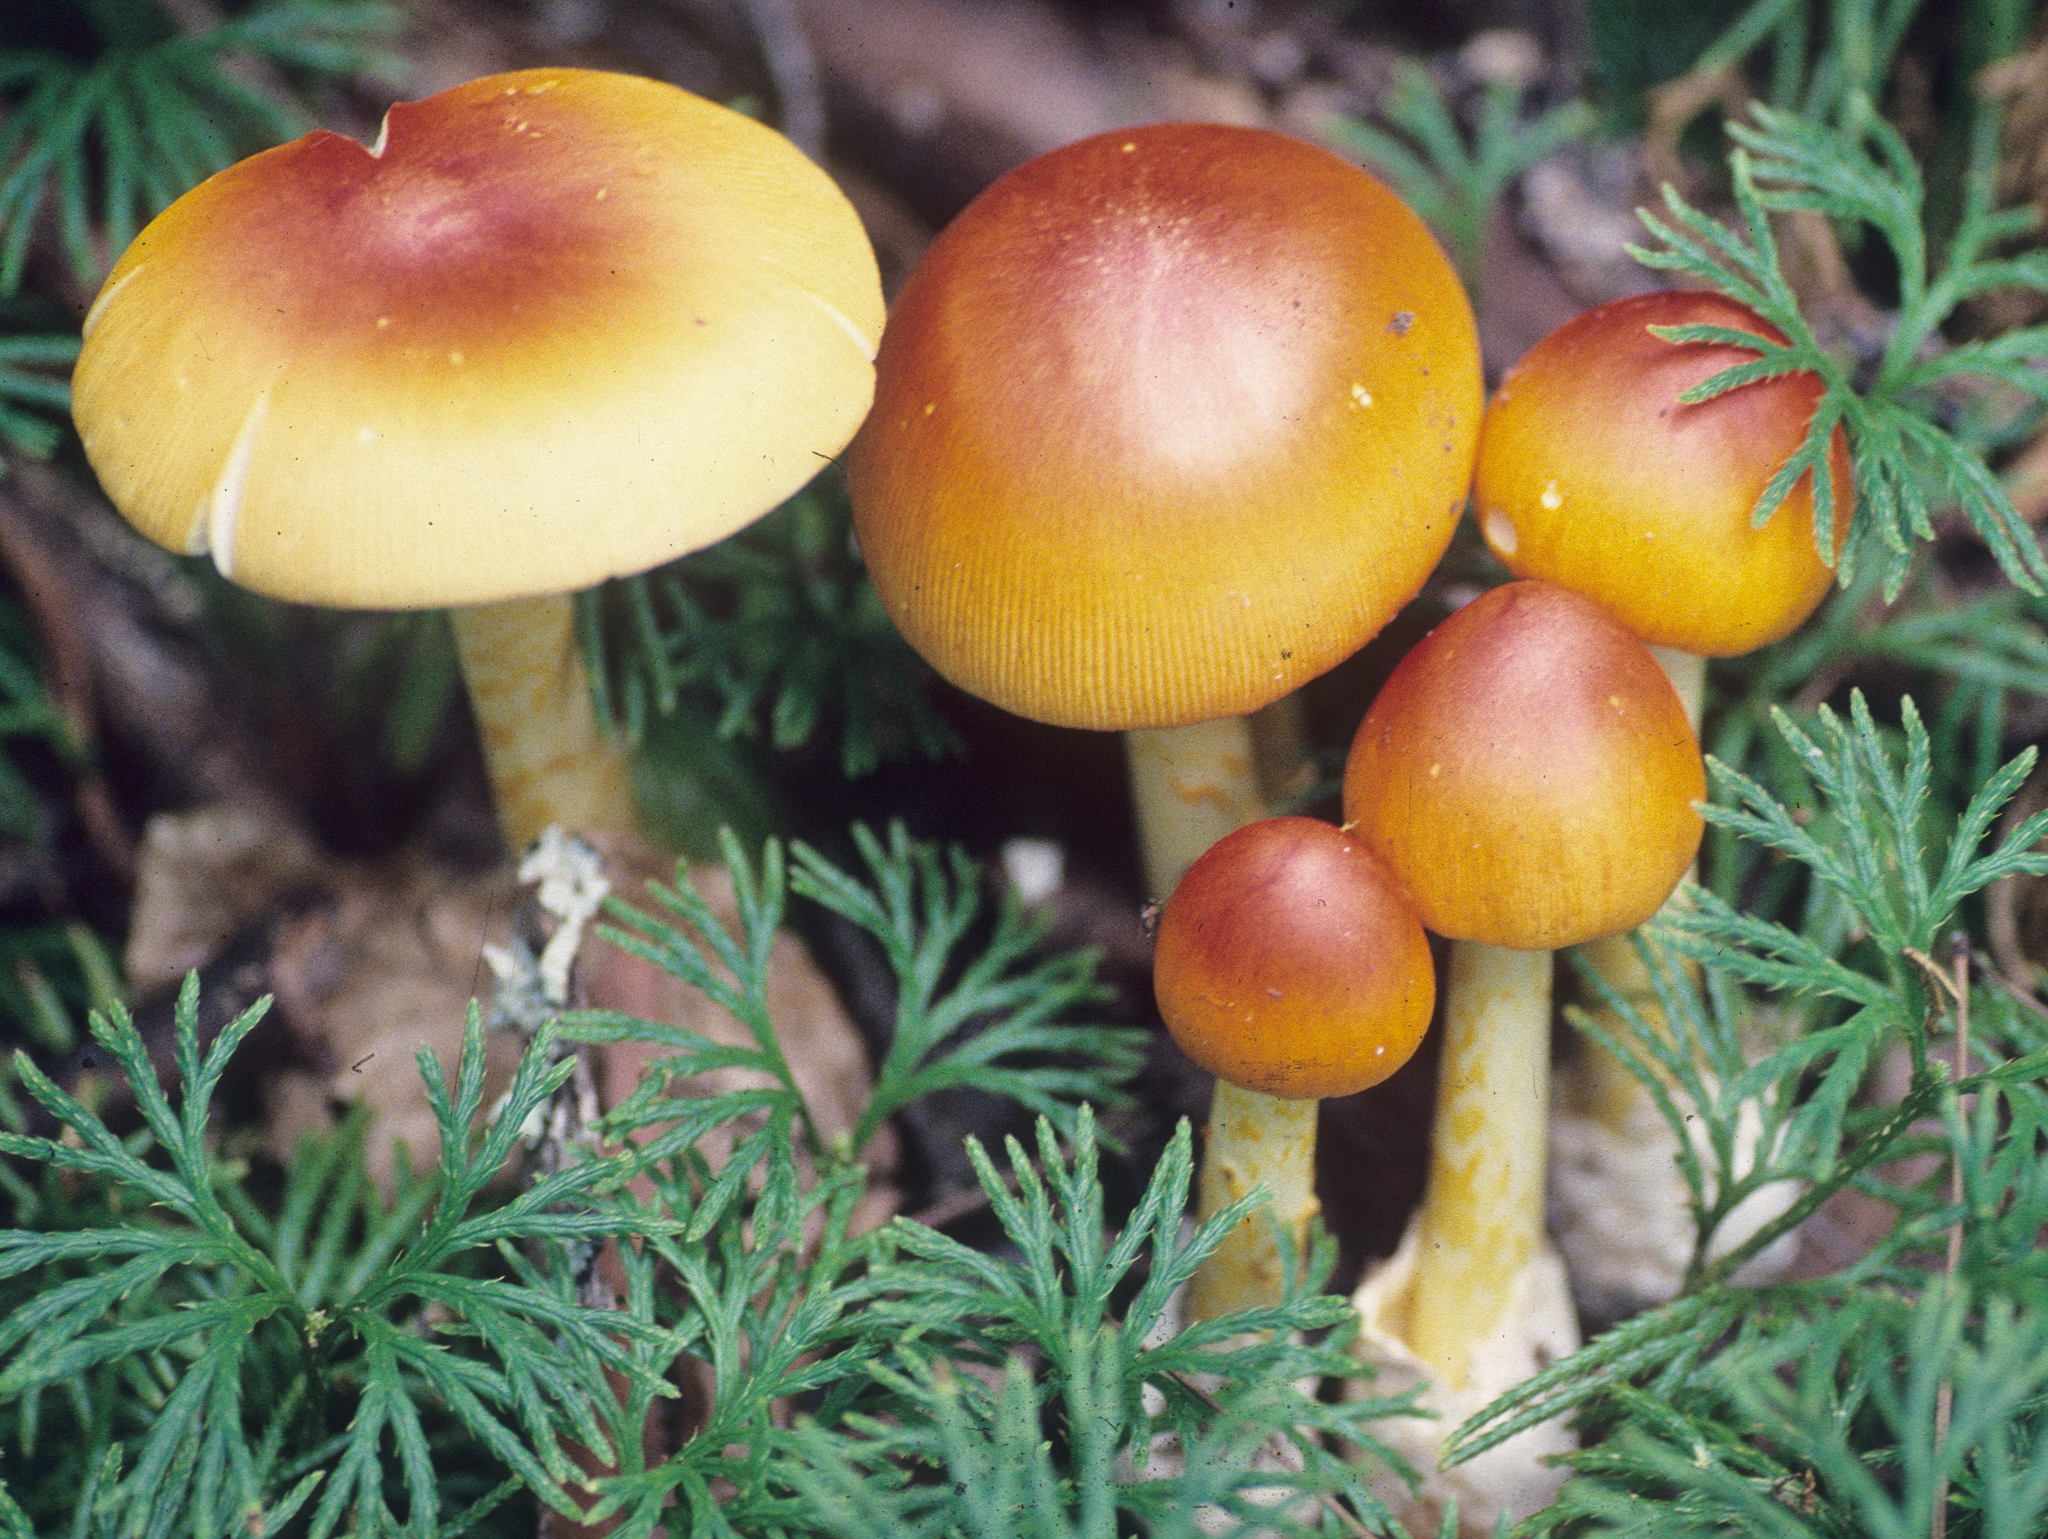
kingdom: Fungi
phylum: Basidiomycota
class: Agaricomycetes
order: Agaricales
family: Amanitaceae
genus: Amanita
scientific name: Amanita jacksonii
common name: Jackson's slender caesar
